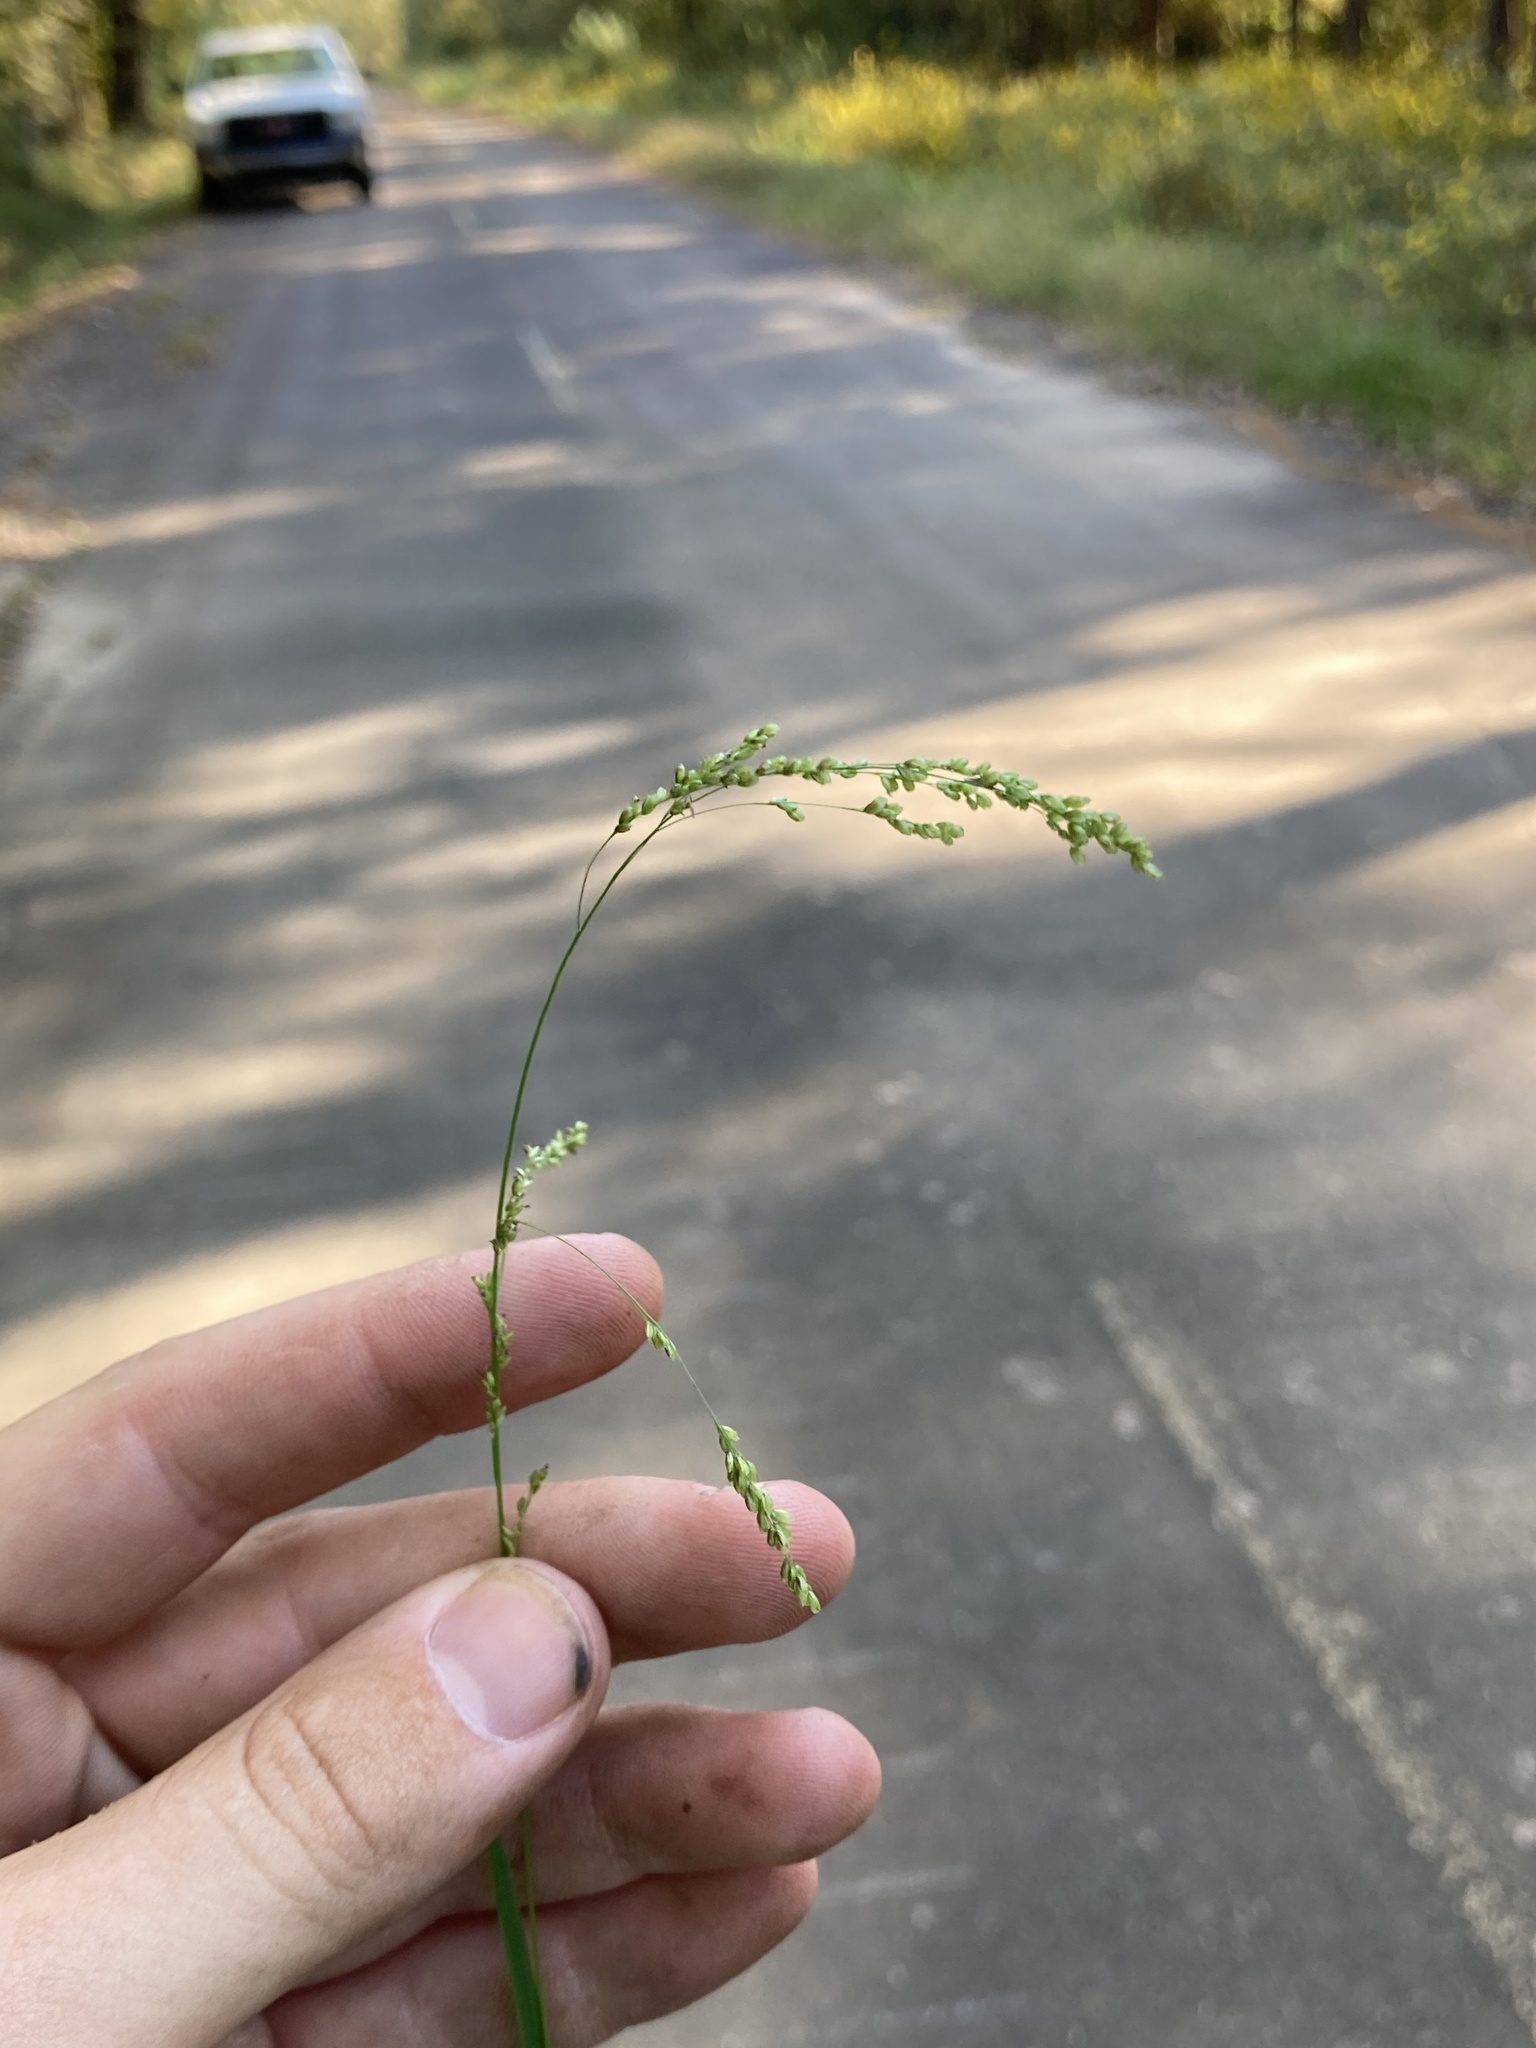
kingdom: Plantae
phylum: Tracheophyta
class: Liliopsida
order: Poales
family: Poaceae
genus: Steinchisma
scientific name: Steinchisma hians
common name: Gaping panic grass
